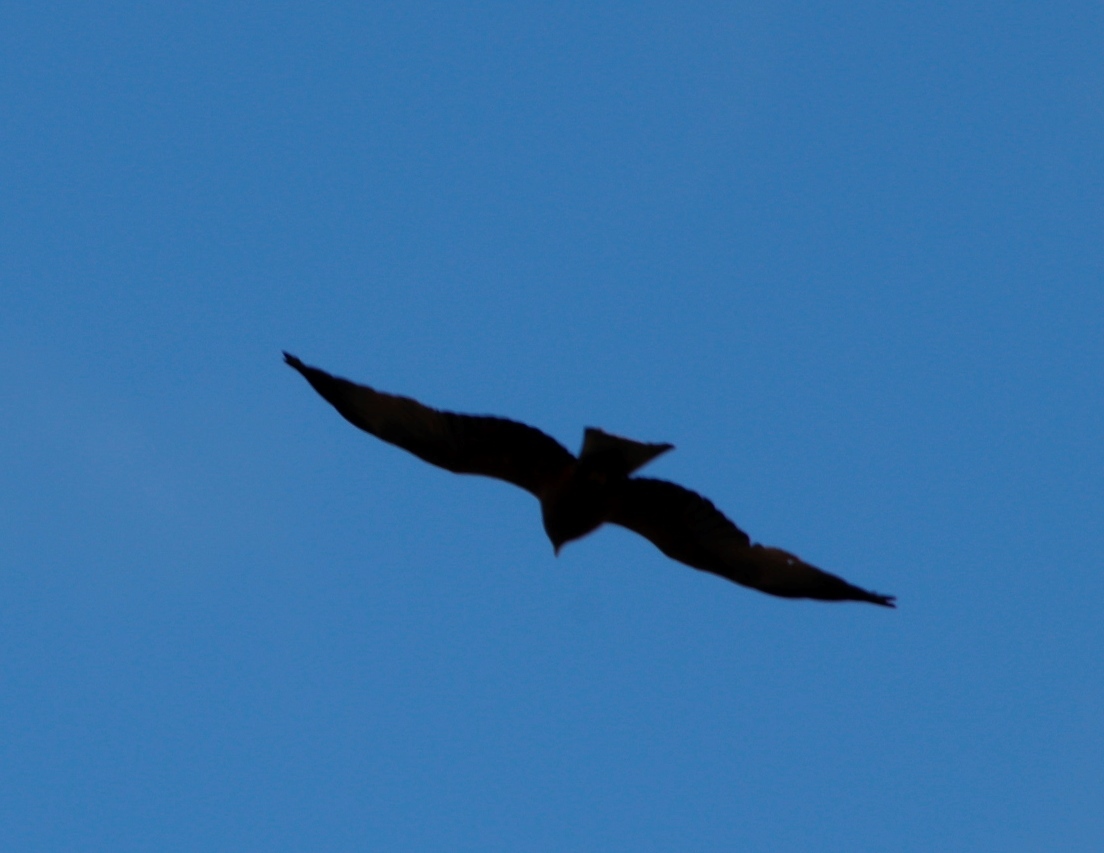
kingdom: Animalia
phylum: Chordata
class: Aves
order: Accipitriformes
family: Accipitridae
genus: Milvus
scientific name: Milvus migrans
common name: Black kite
